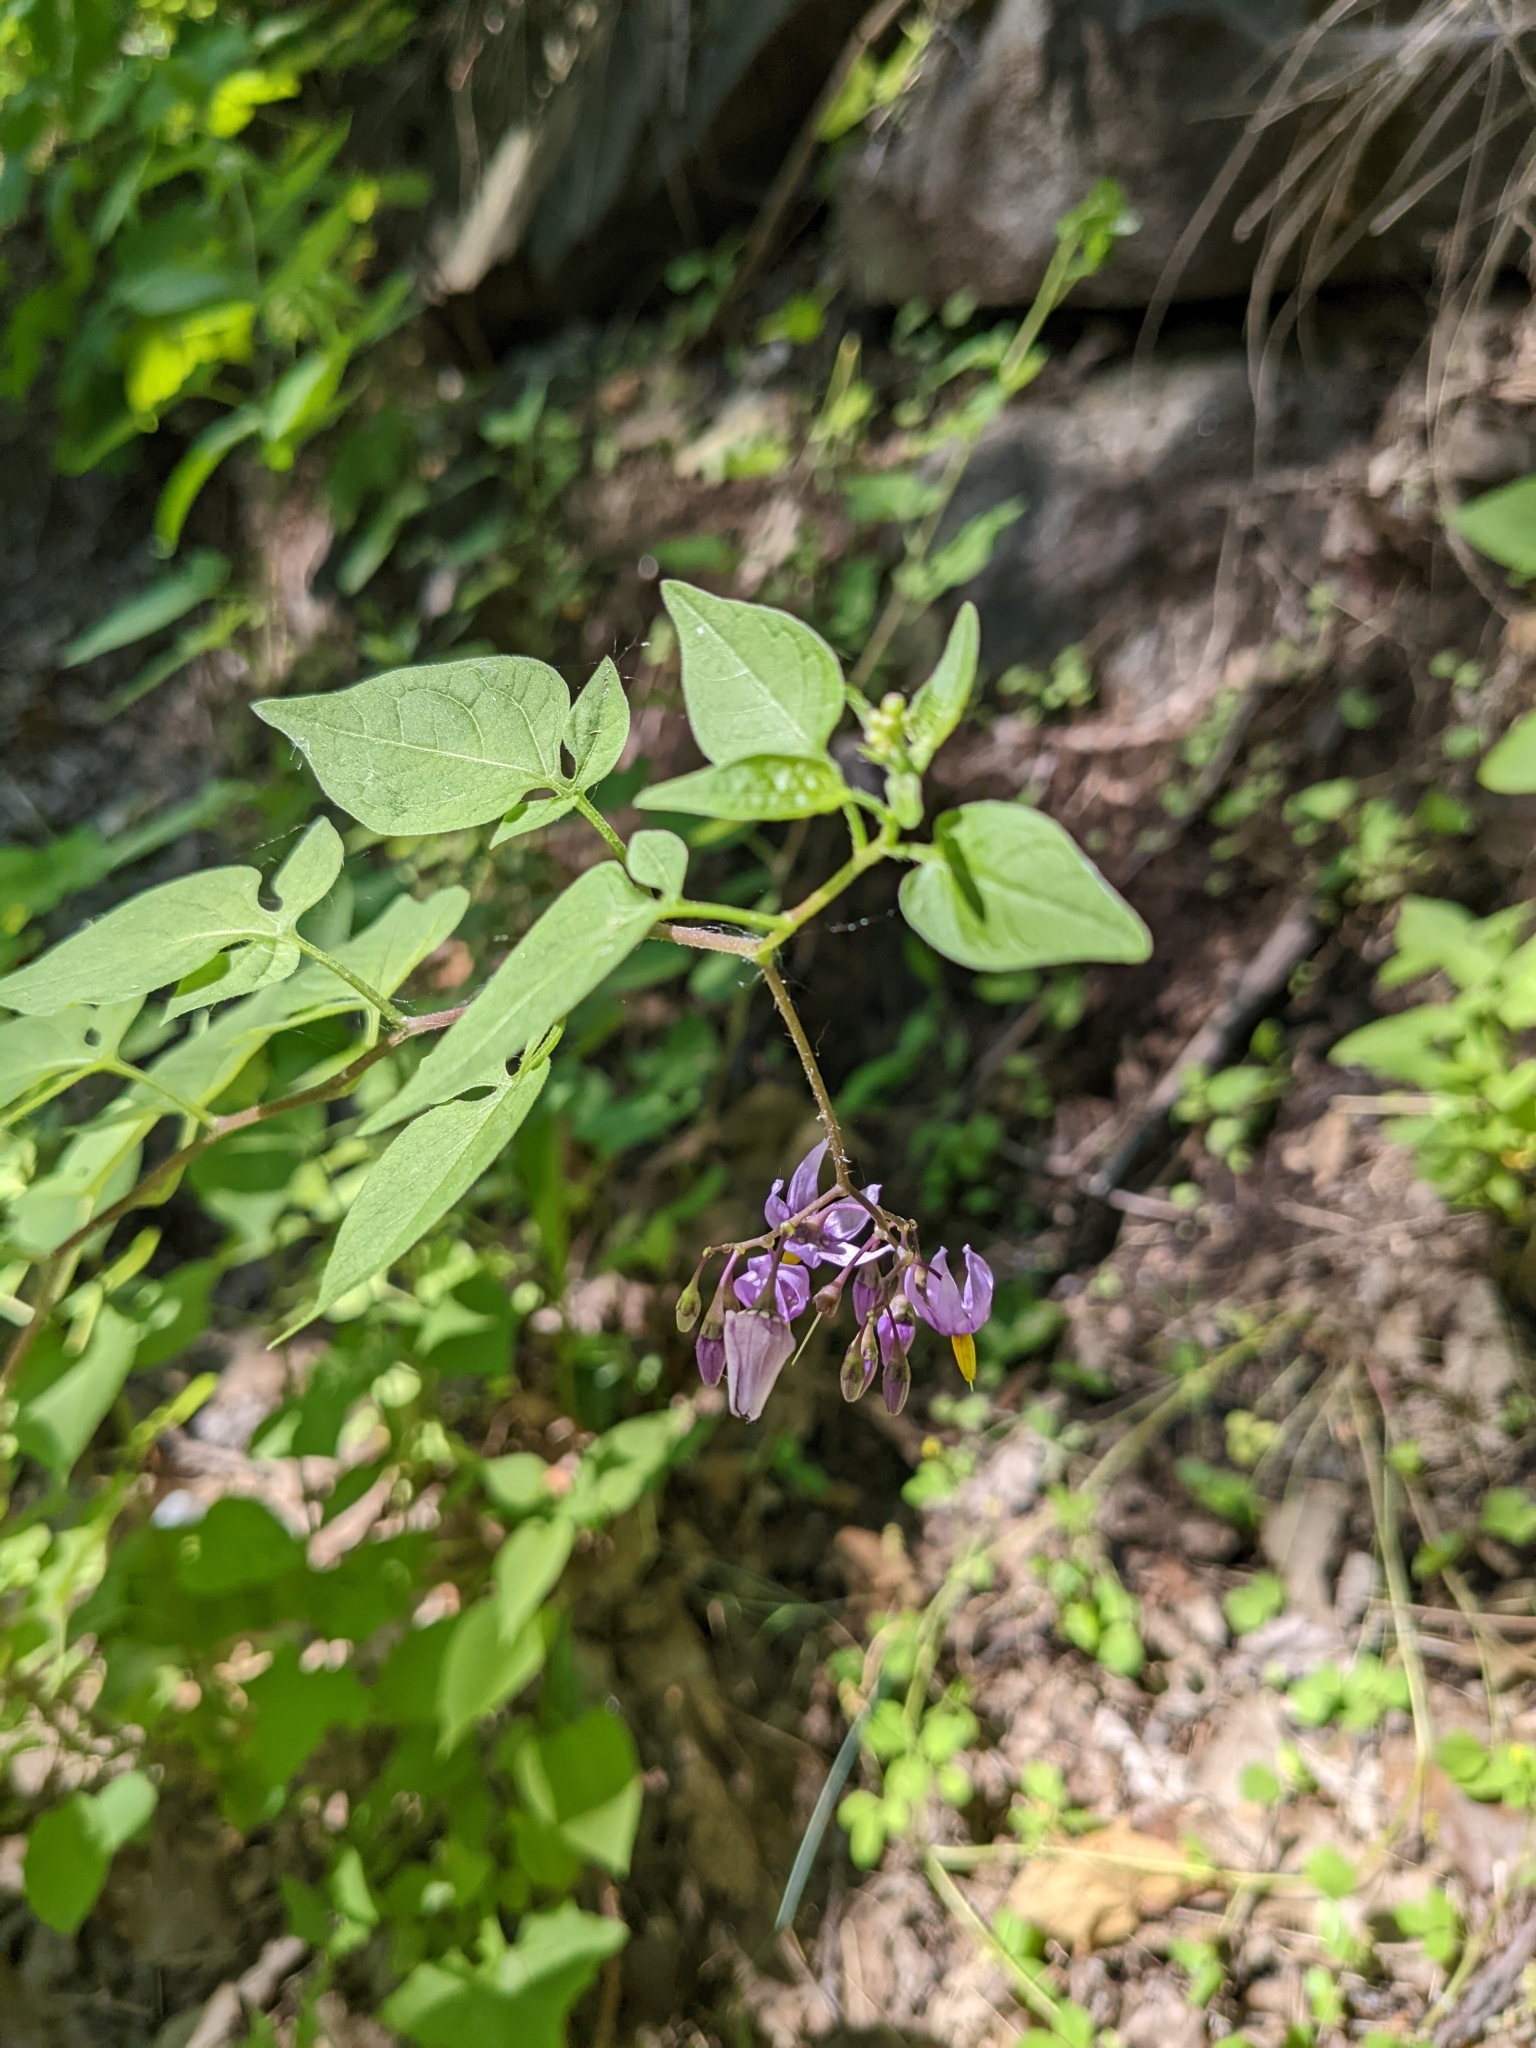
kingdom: Plantae
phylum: Tracheophyta
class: Magnoliopsida
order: Solanales
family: Solanaceae
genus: Solanum
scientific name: Solanum dulcamara
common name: Climbing nightshade
